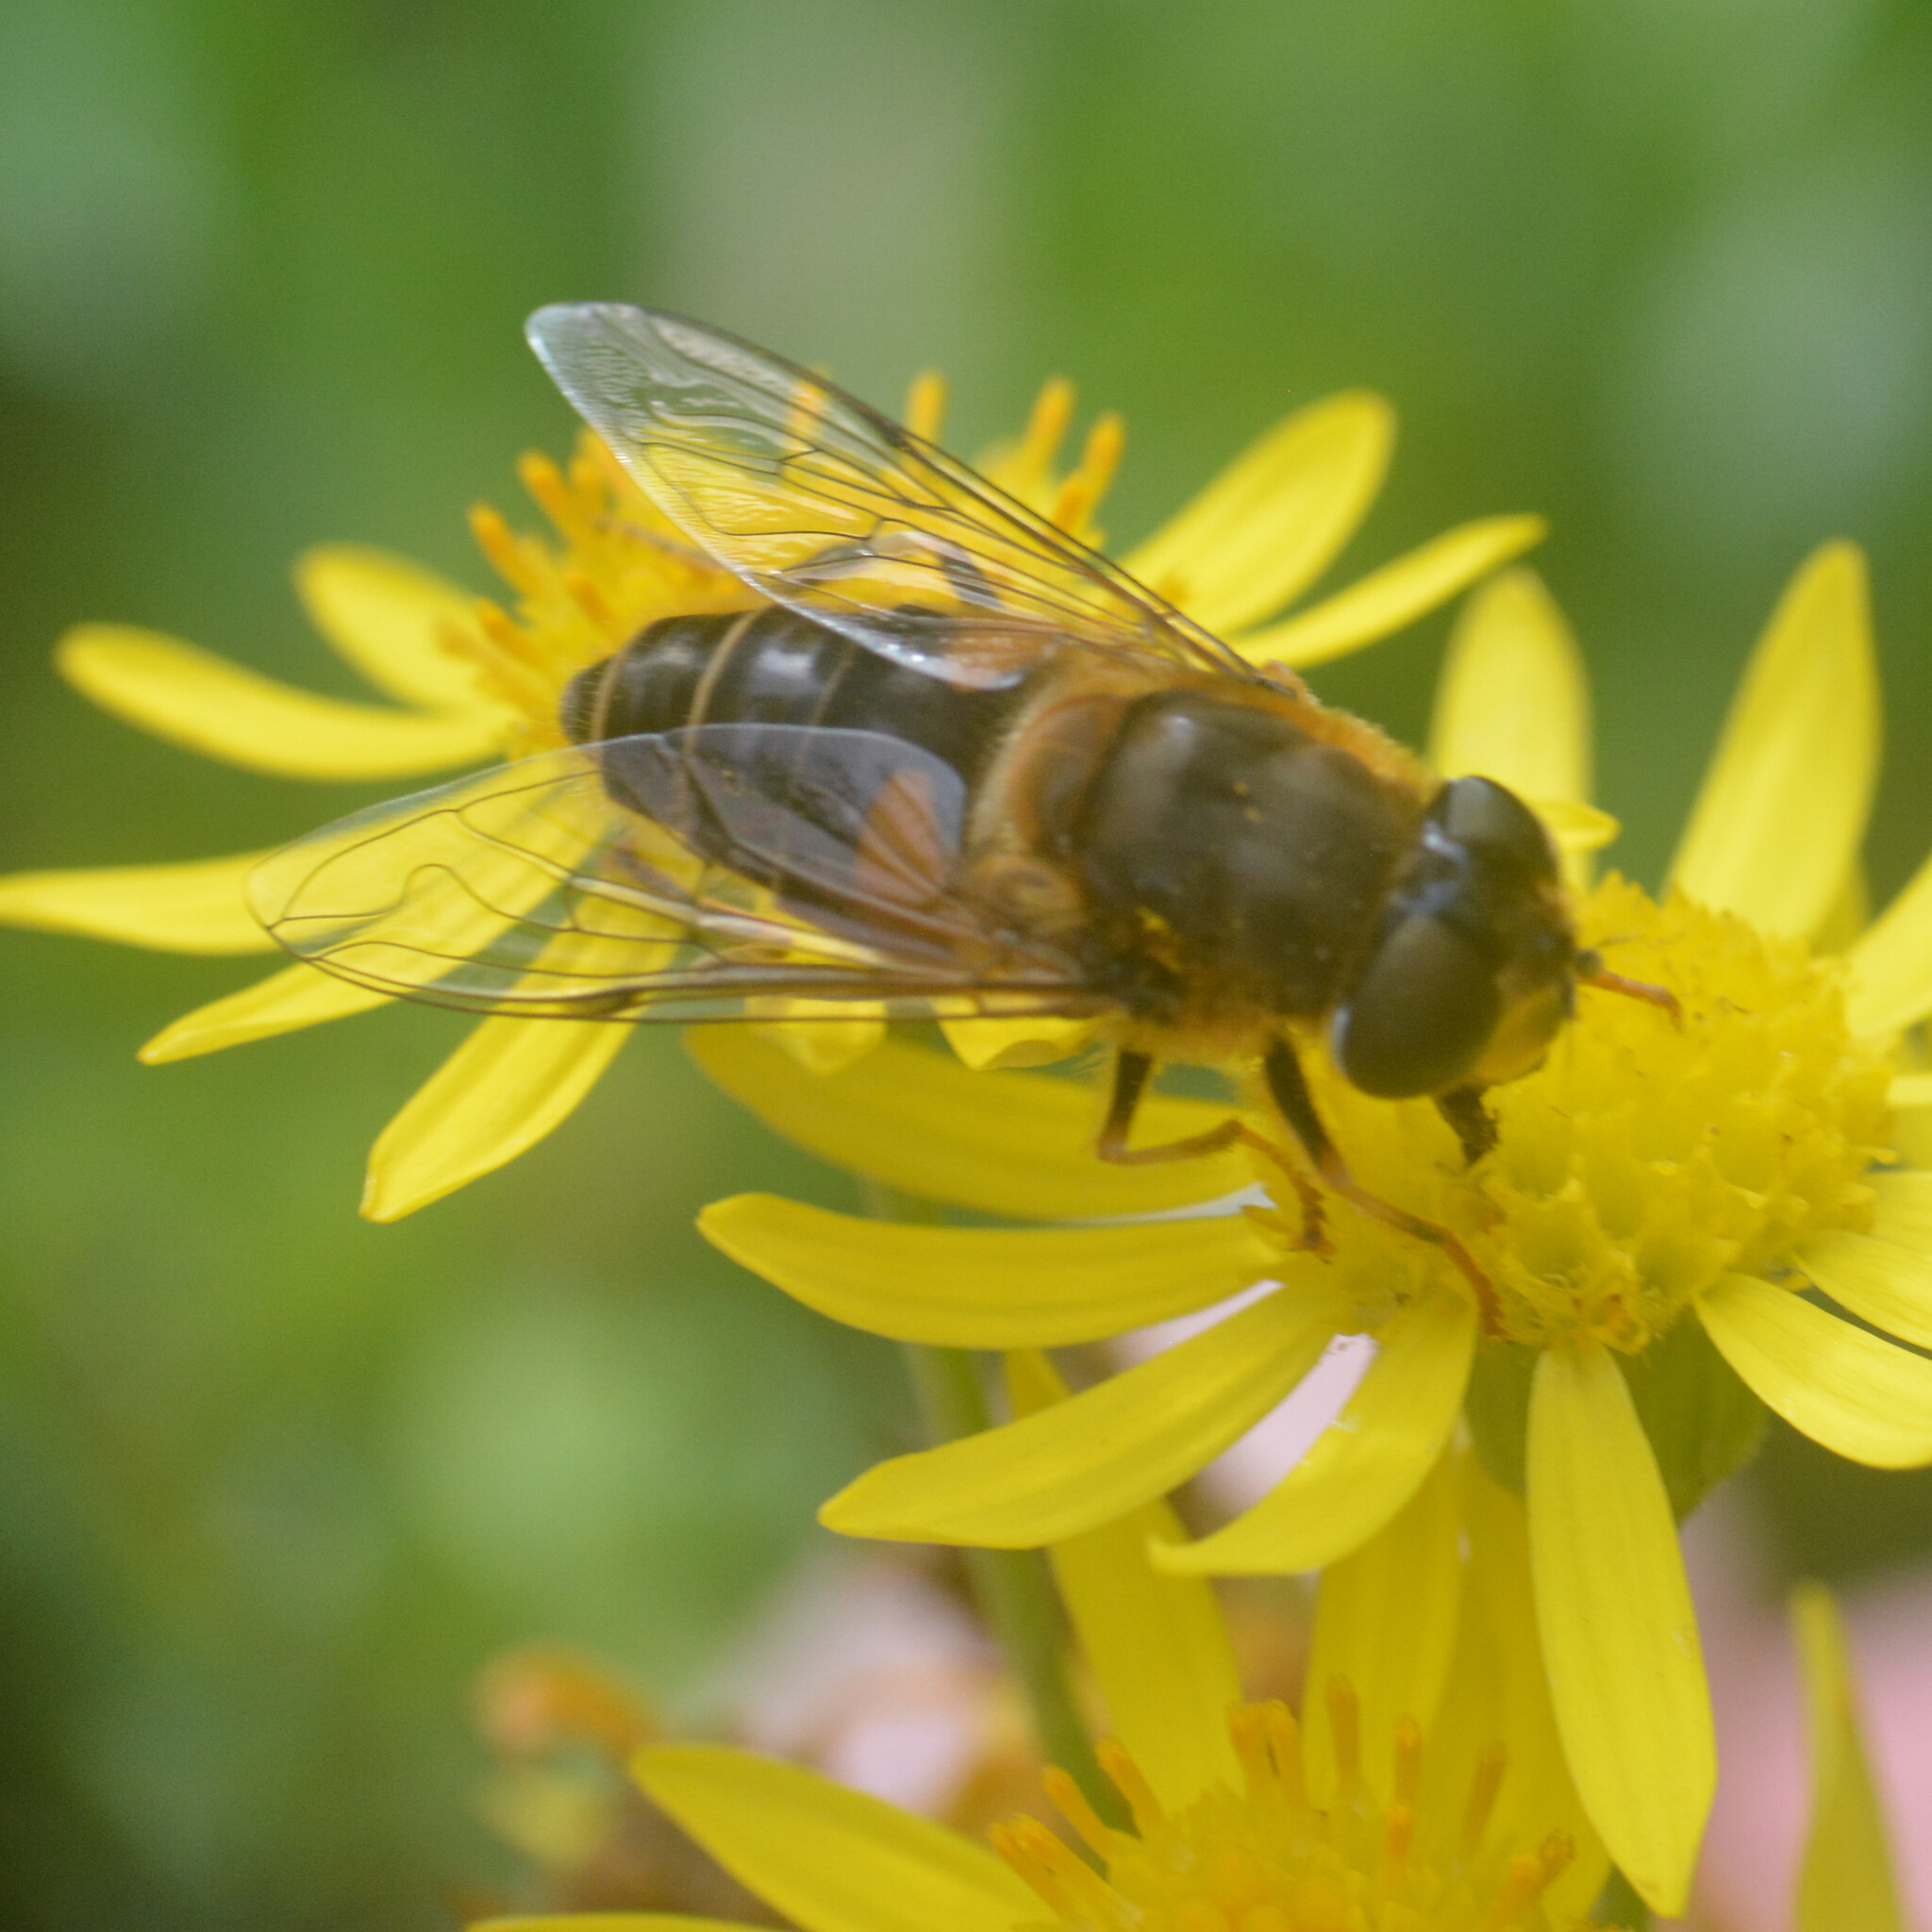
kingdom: Animalia
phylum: Arthropoda
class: Insecta
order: Diptera
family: Syrphidae
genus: Eristalis
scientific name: Eristalis pertinax
